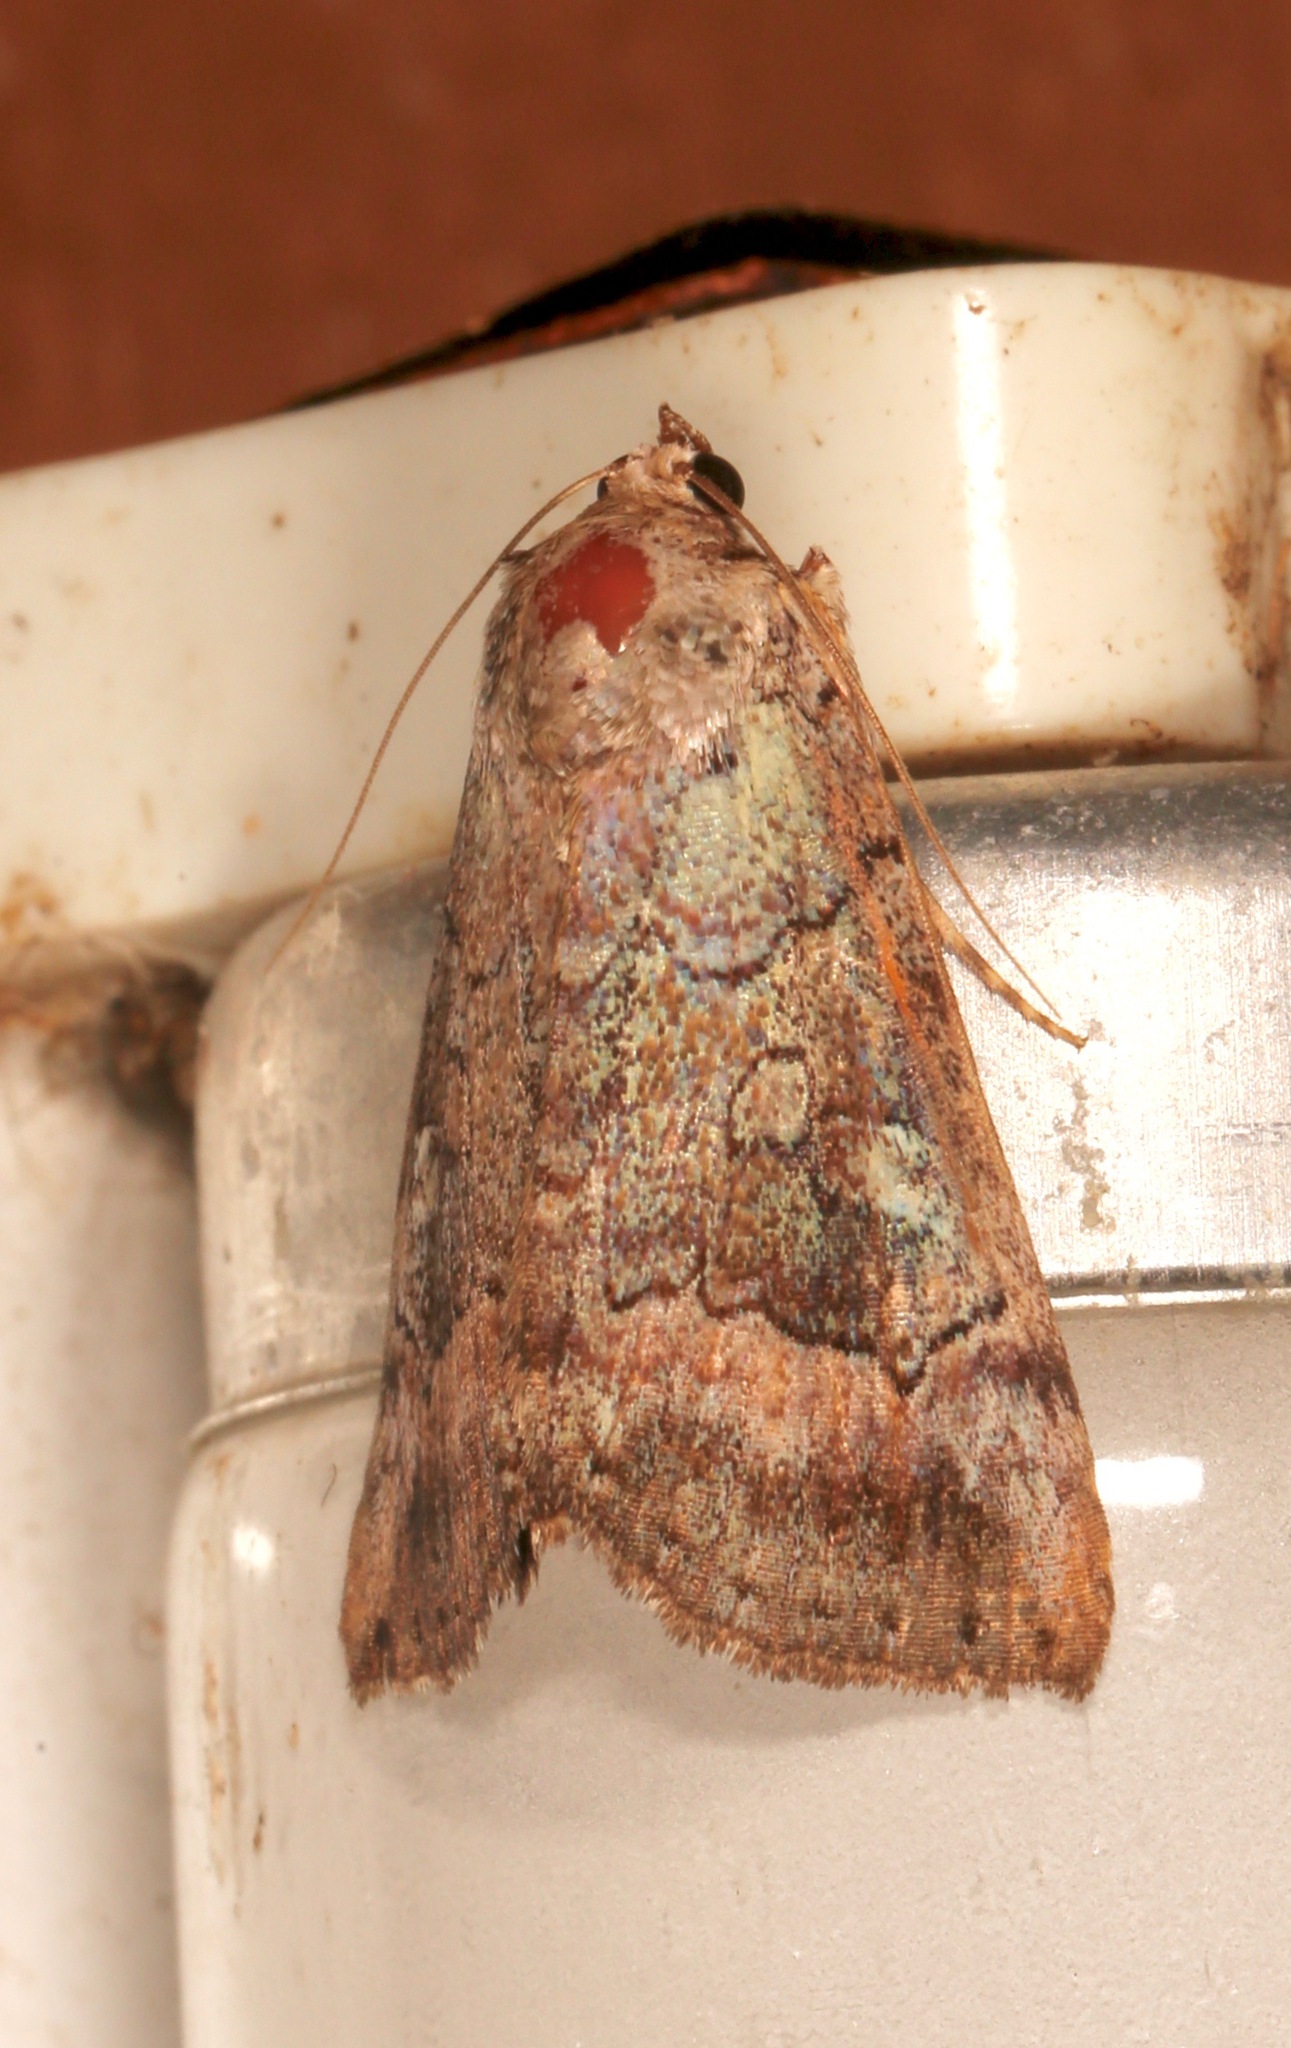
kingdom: Animalia
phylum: Arthropoda
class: Insecta
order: Lepidoptera
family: Erebidae
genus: Catocala
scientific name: Catocala similis
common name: Similar underwing
